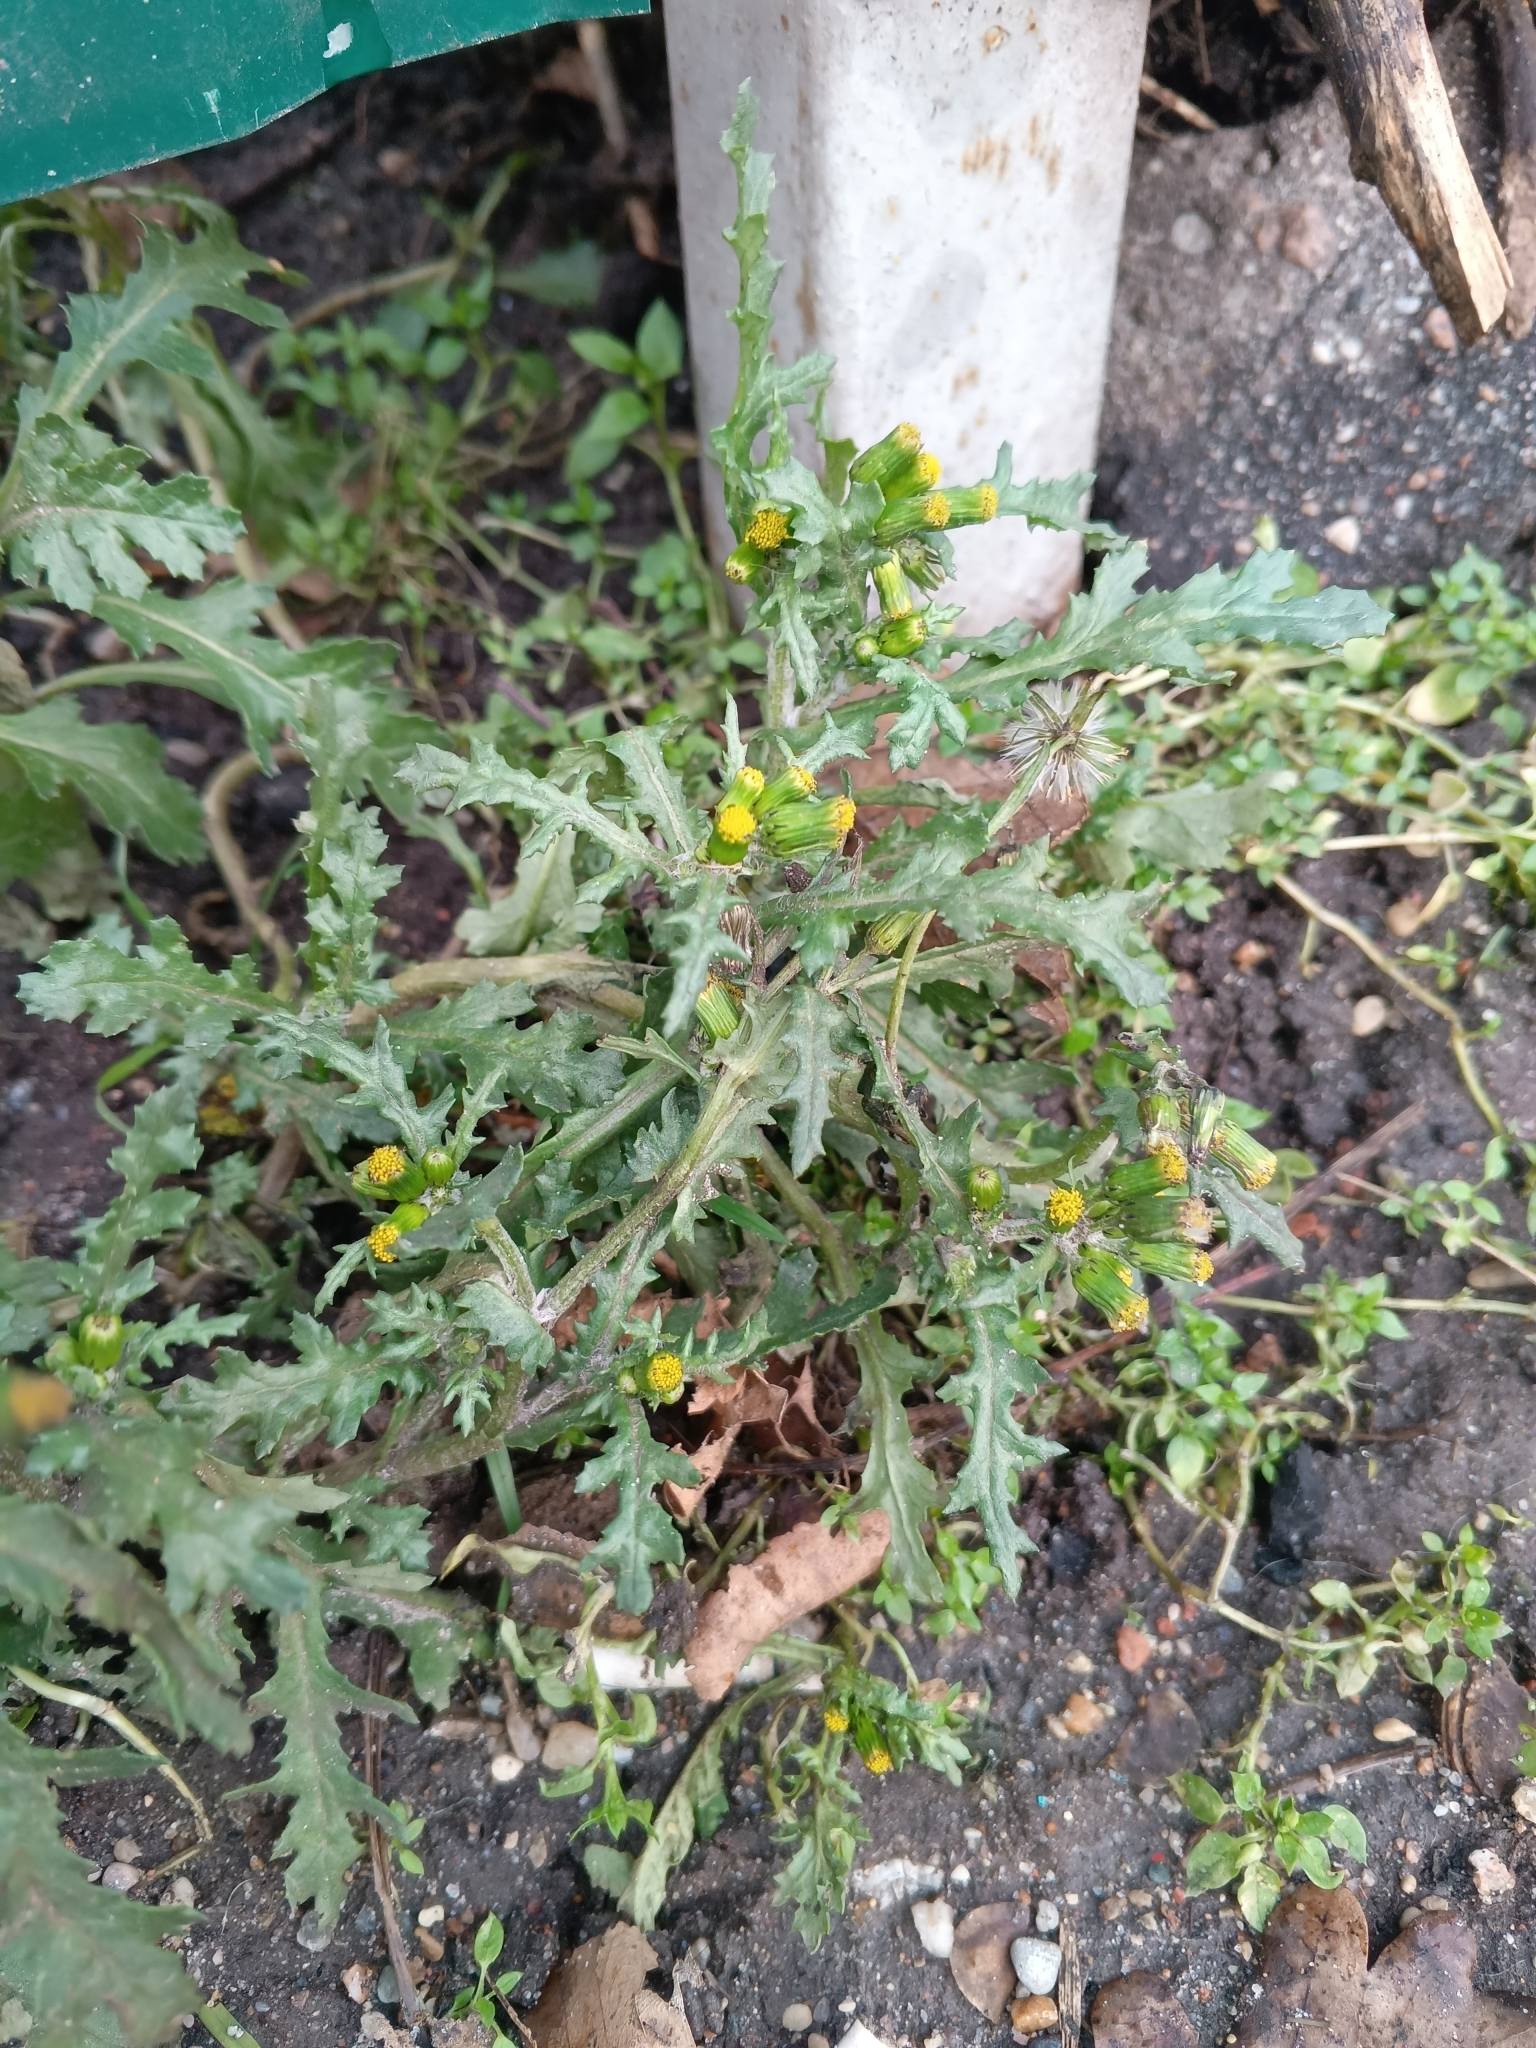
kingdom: Plantae
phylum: Tracheophyta
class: Magnoliopsida
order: Asterales
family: Asteraceae
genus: Senecio
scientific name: Senecio vulgaris
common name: Old-man-in-the-spring
